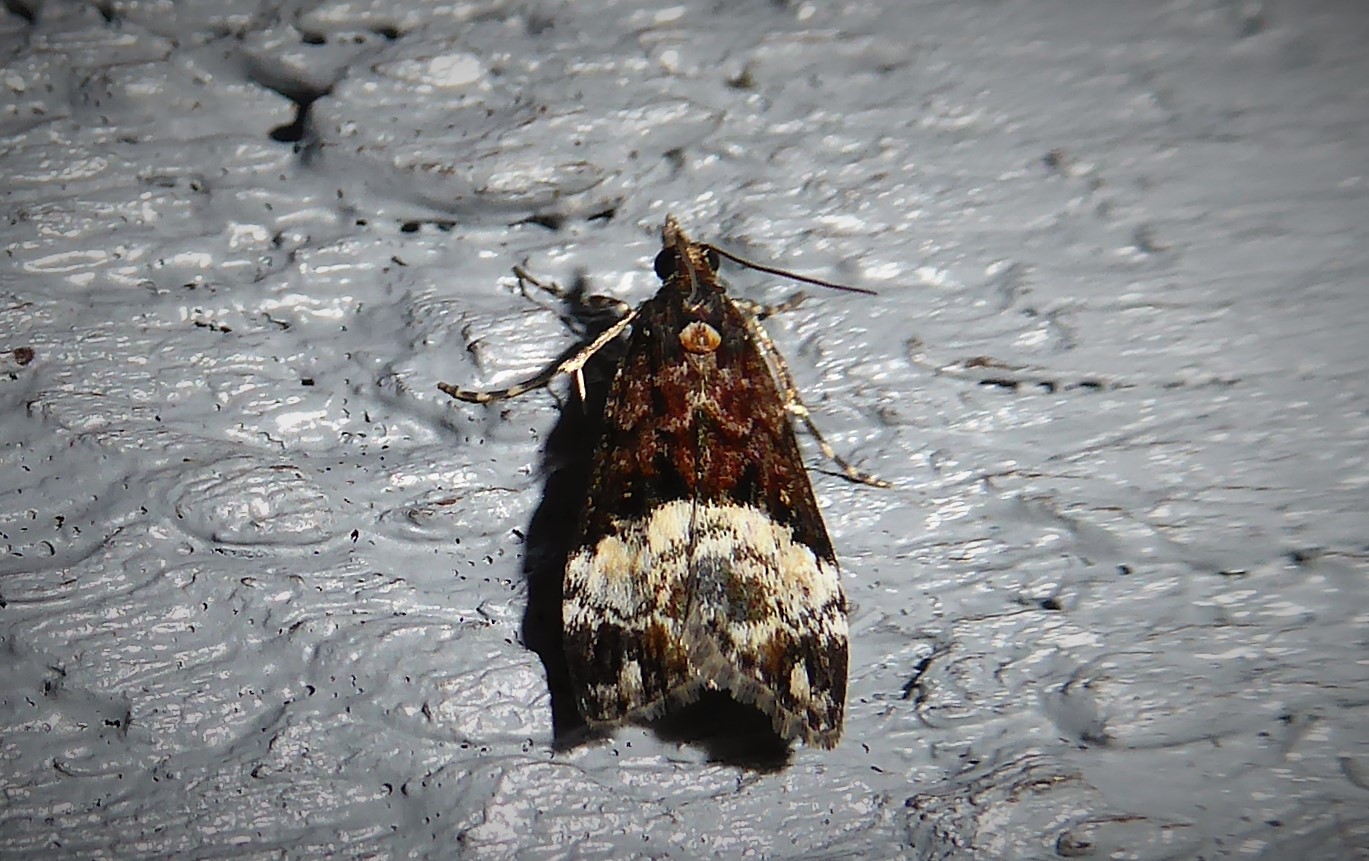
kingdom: Animalia
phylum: Arthropoda
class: Insecta
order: Lepidoptera
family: Crambidae
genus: Scoparia
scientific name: Scoparia minusculalis
